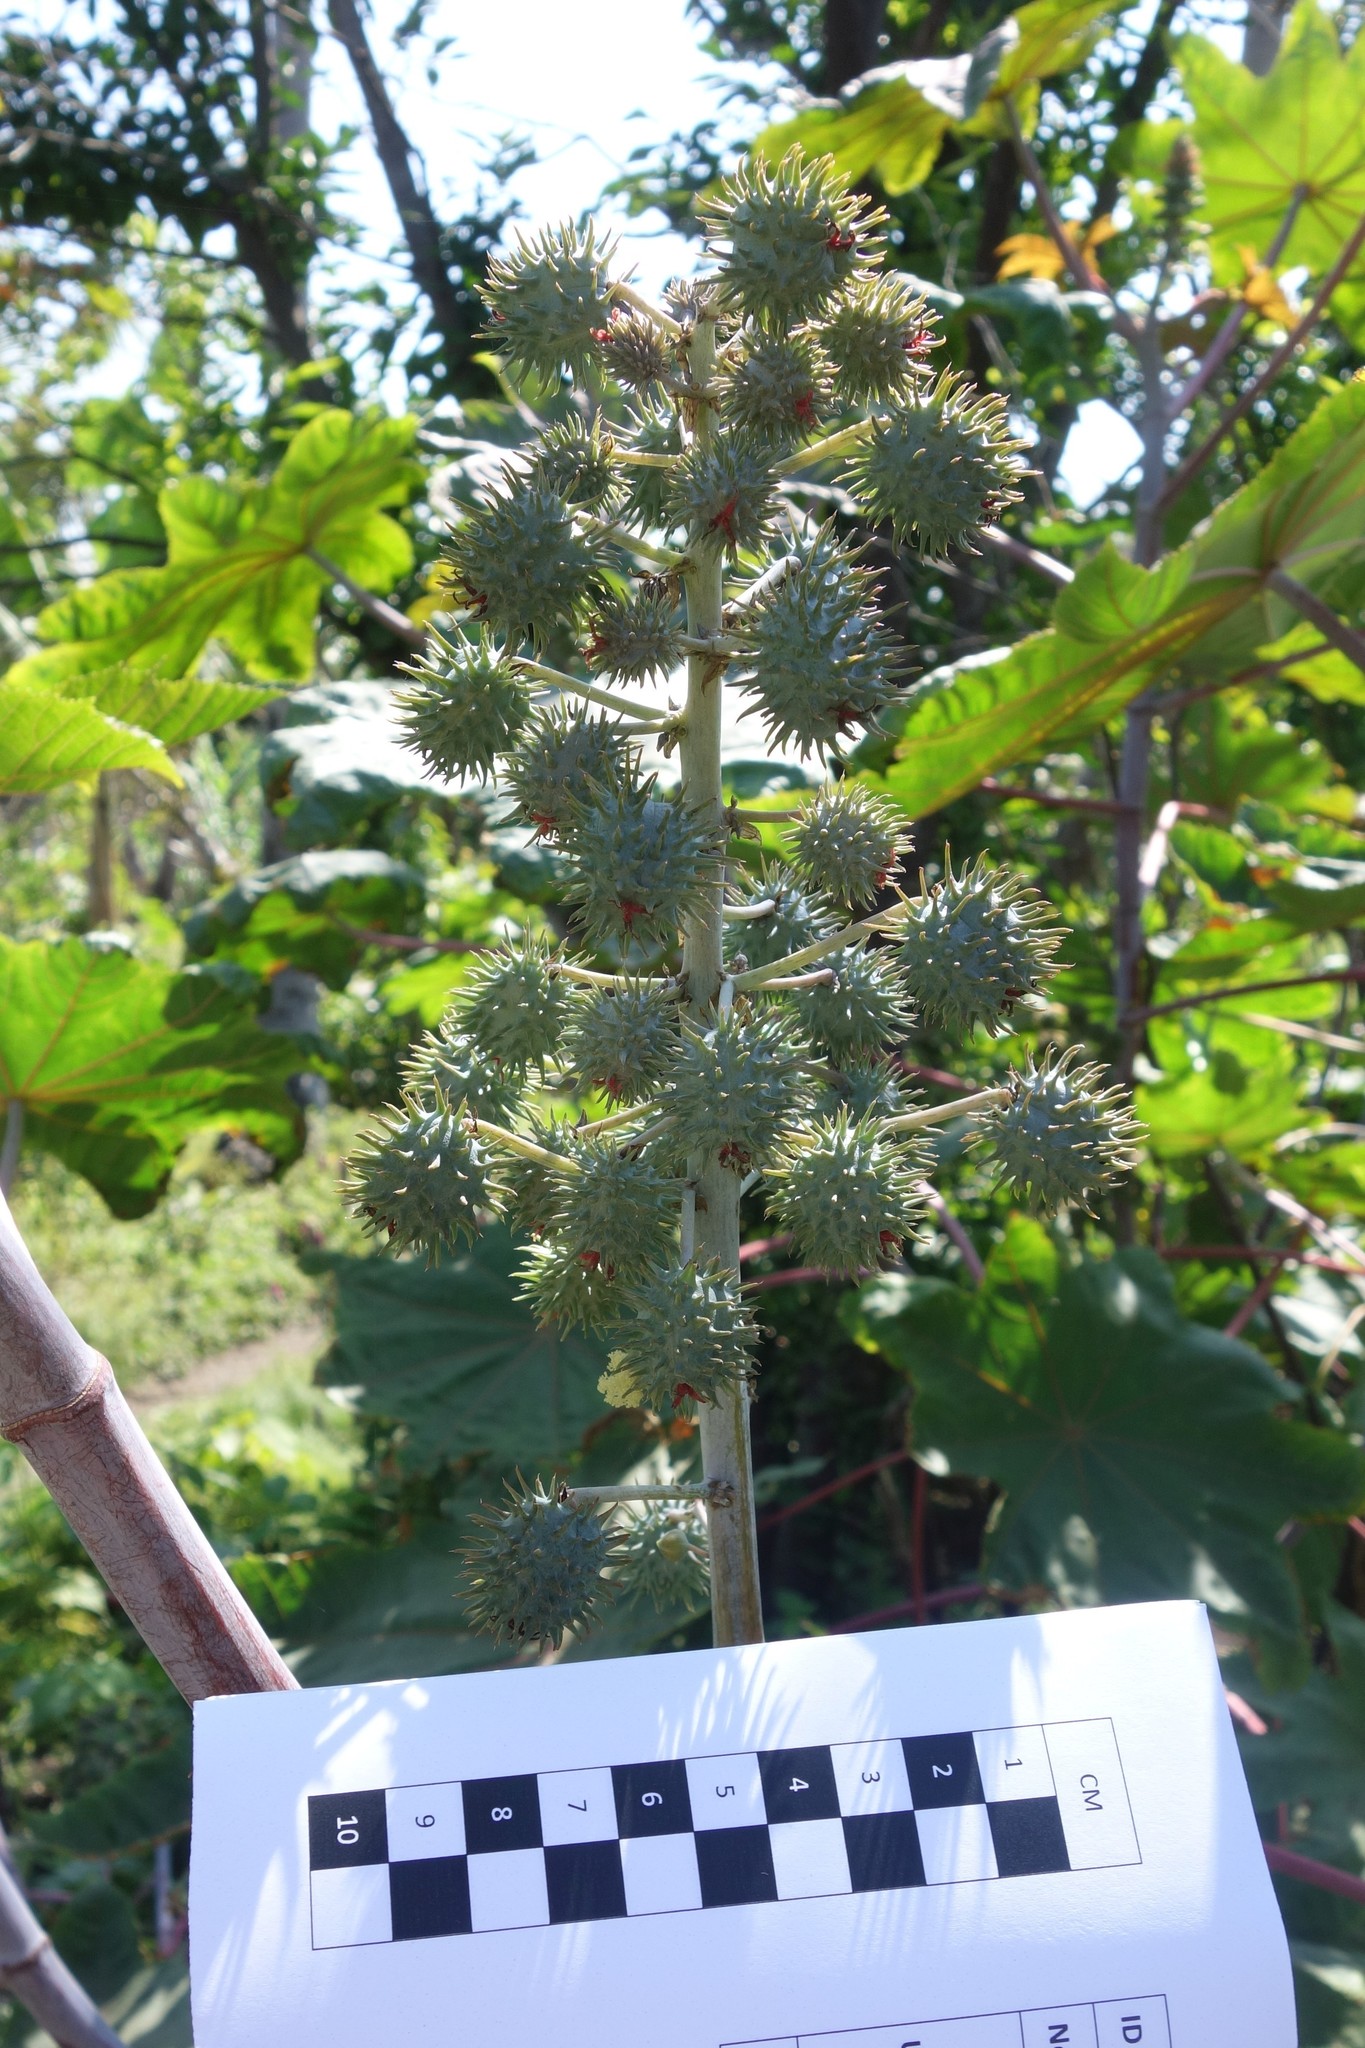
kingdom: Plantae
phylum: Tracheophyta
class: Magnoliopsida
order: Malpighiales
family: Euphorbiaceae
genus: Ricinus
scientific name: Ricinus communis
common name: Castor-oil-plant
